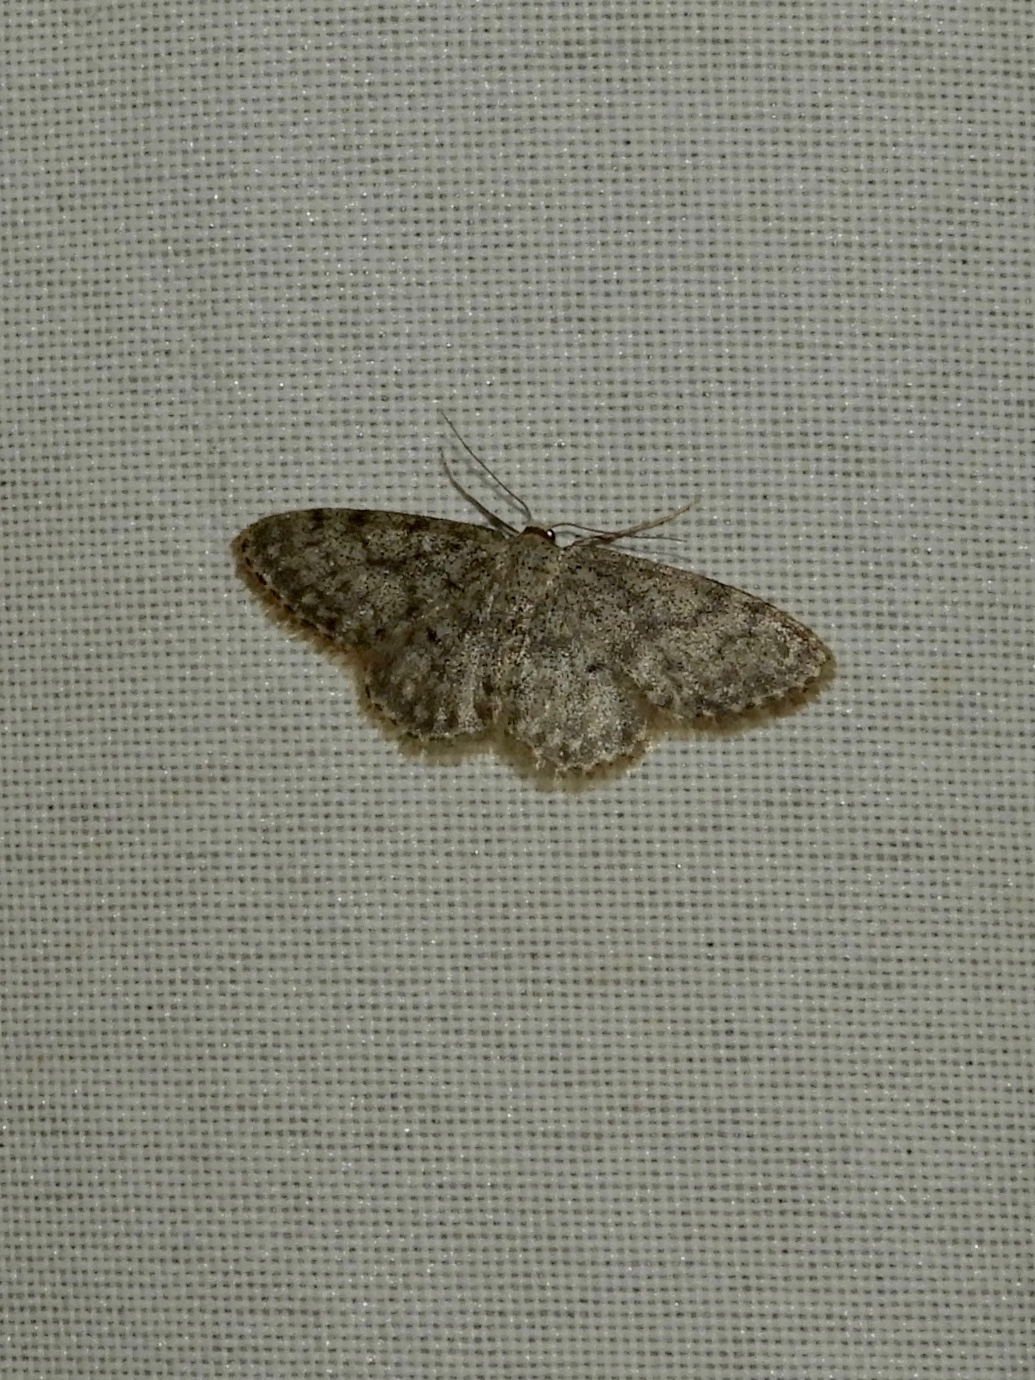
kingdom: Animalia
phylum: Arthropoda
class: Insecta
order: Lepidoptera
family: Geometridae
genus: Idaea
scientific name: Idaea typicata
